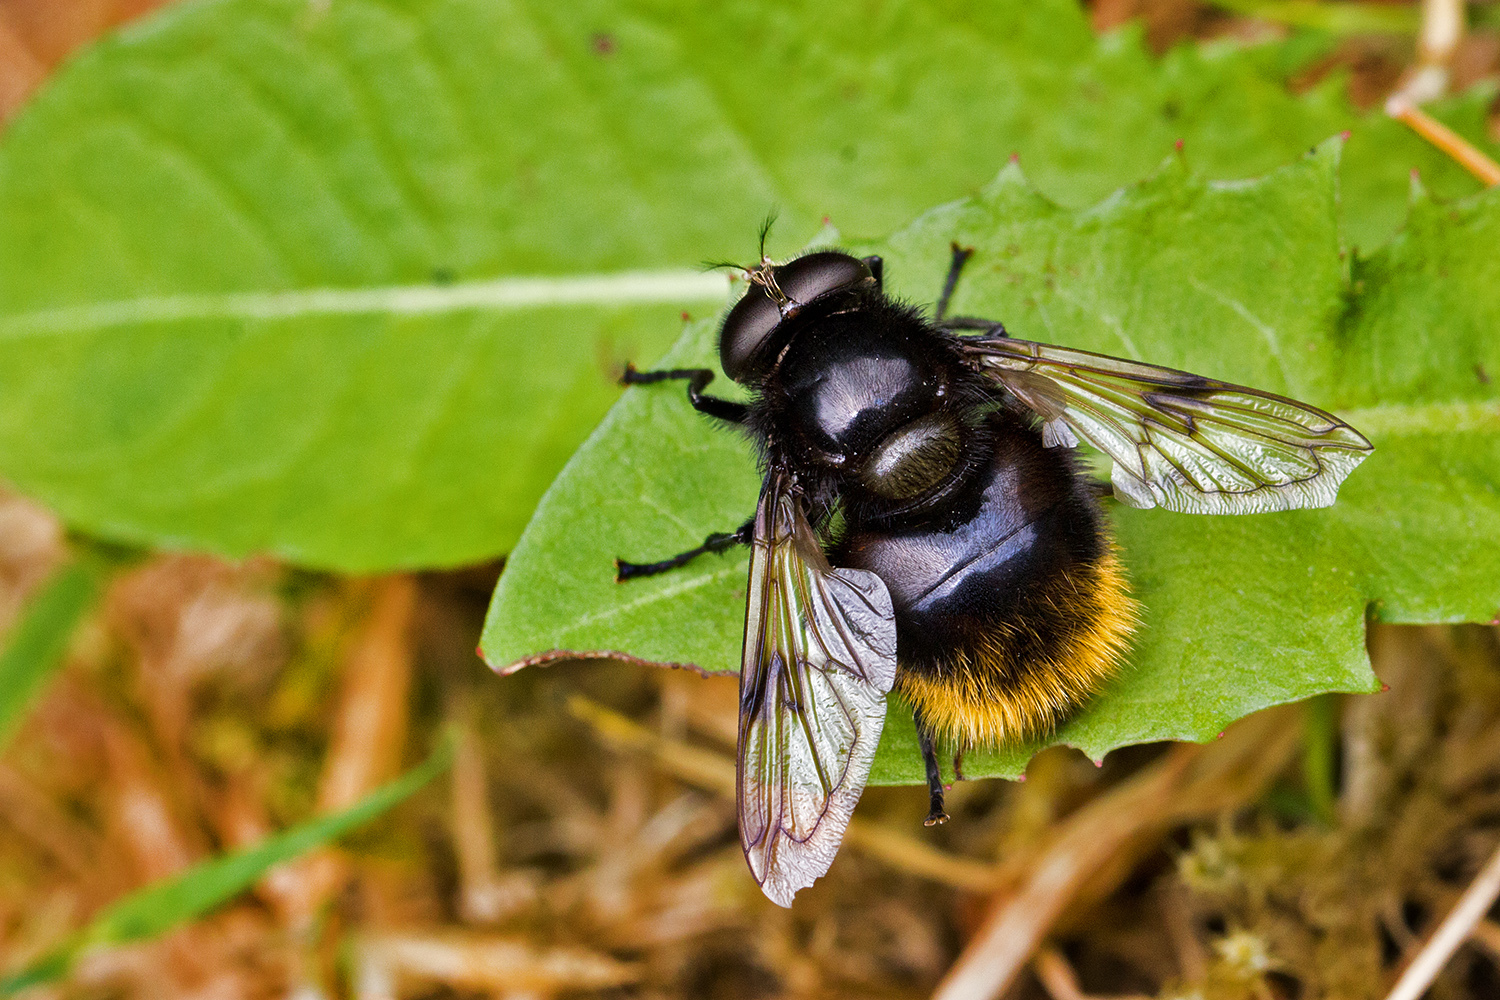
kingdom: Animalia
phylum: Arthropoda
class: Insecta
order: Diptera
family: Syrphidae
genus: Volucella
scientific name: Volucella bombylans
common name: Bumble bee hover fly
